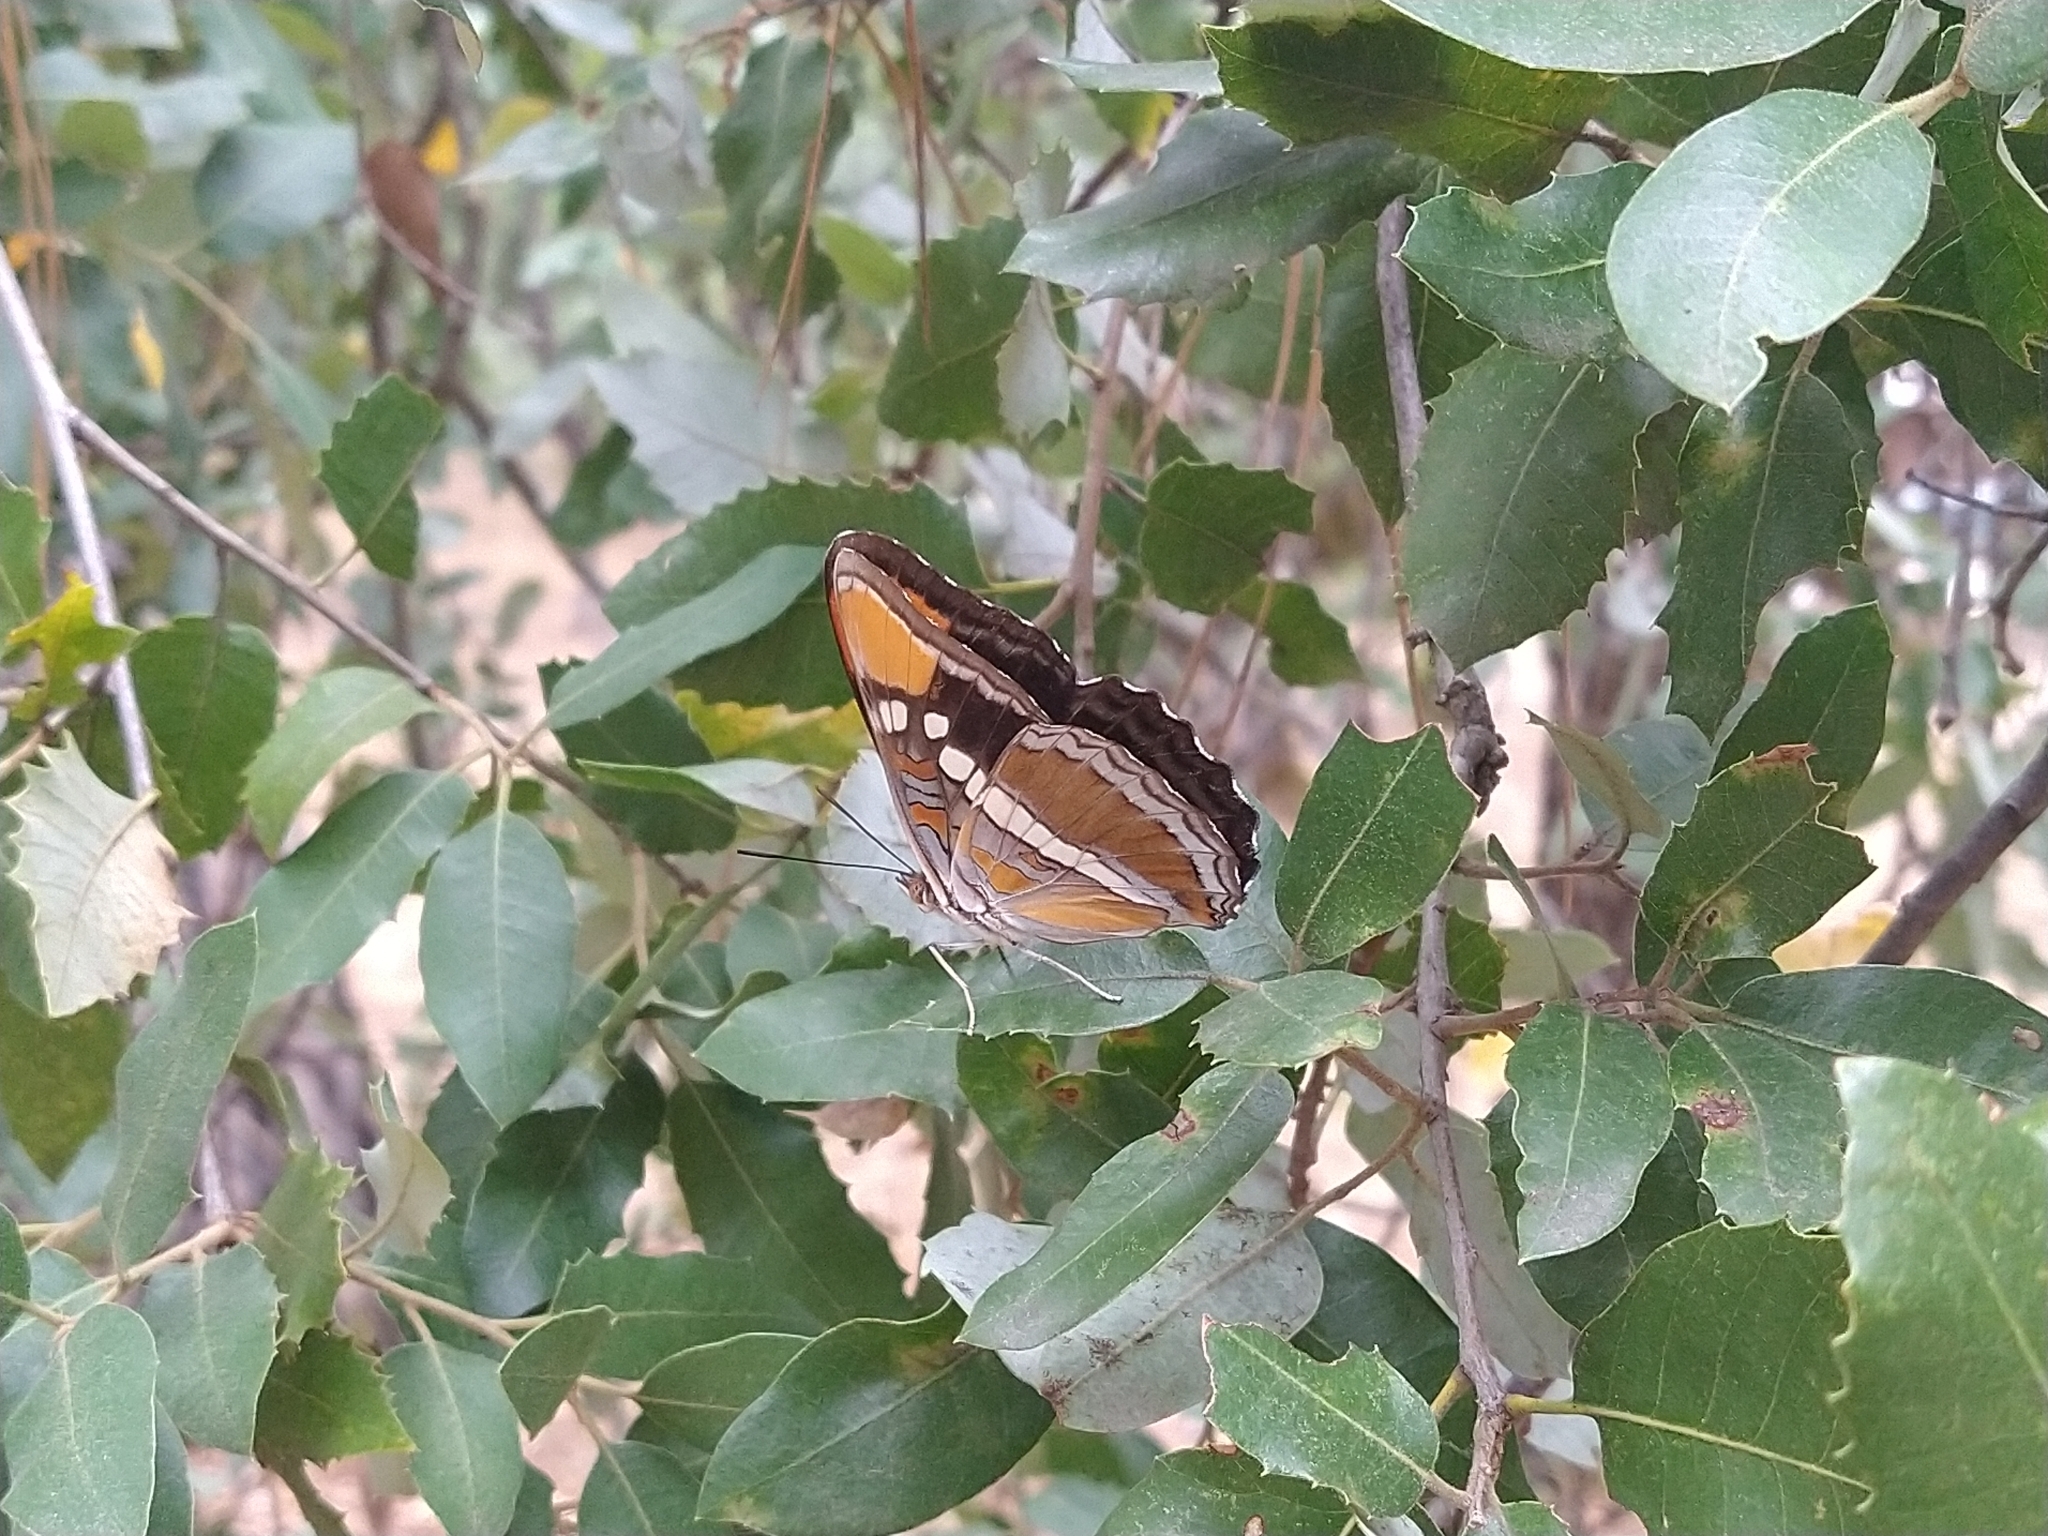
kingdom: Animalia
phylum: Arthropoda
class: Insecta
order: Lepidoptera
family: Nymphalidae
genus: Limenitis
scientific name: Limenitis bredowii
